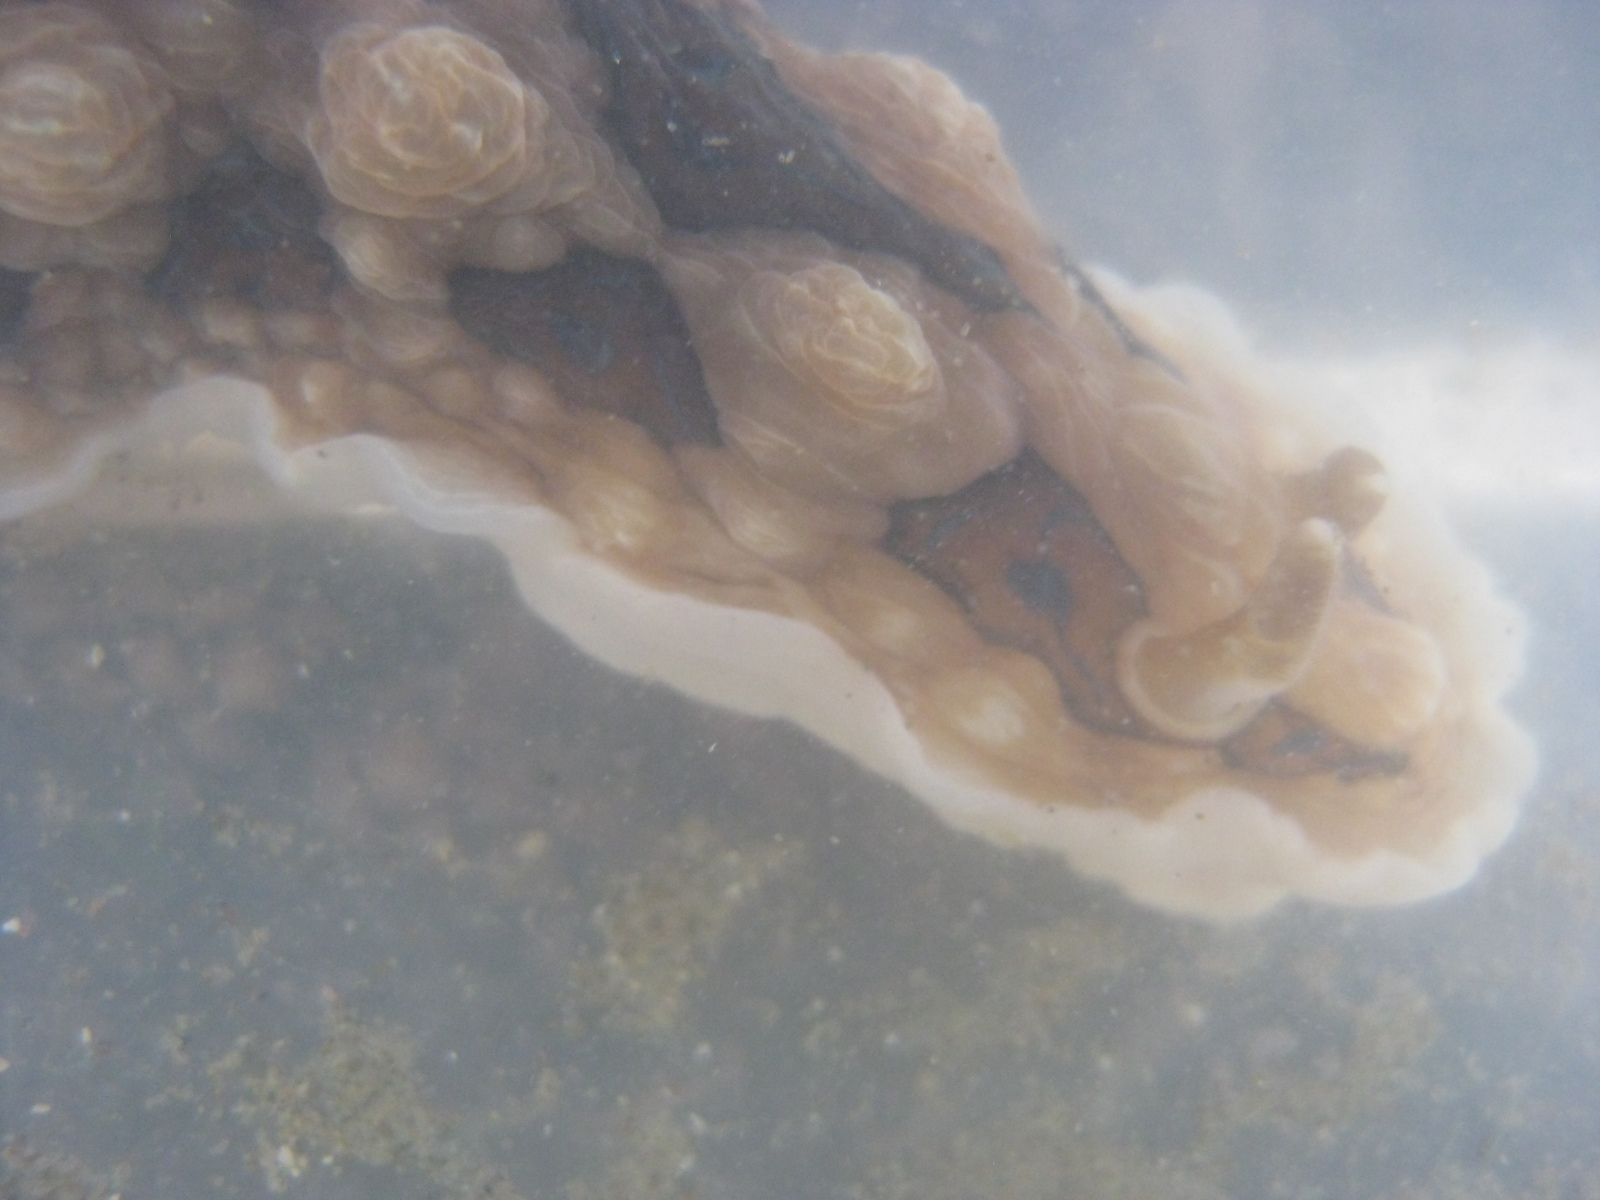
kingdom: Animalia
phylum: Mollusca
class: Gastropoda
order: Nudibranchia
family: Dendrodorididae
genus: Dendrodoris
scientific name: Dendrodoris krusensternii
